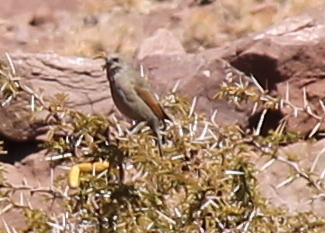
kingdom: Animalia
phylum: Chordata
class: Aves
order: Passeriformes
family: Icteridae
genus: Agelaioides
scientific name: Agelaioides badius
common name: Baywing
